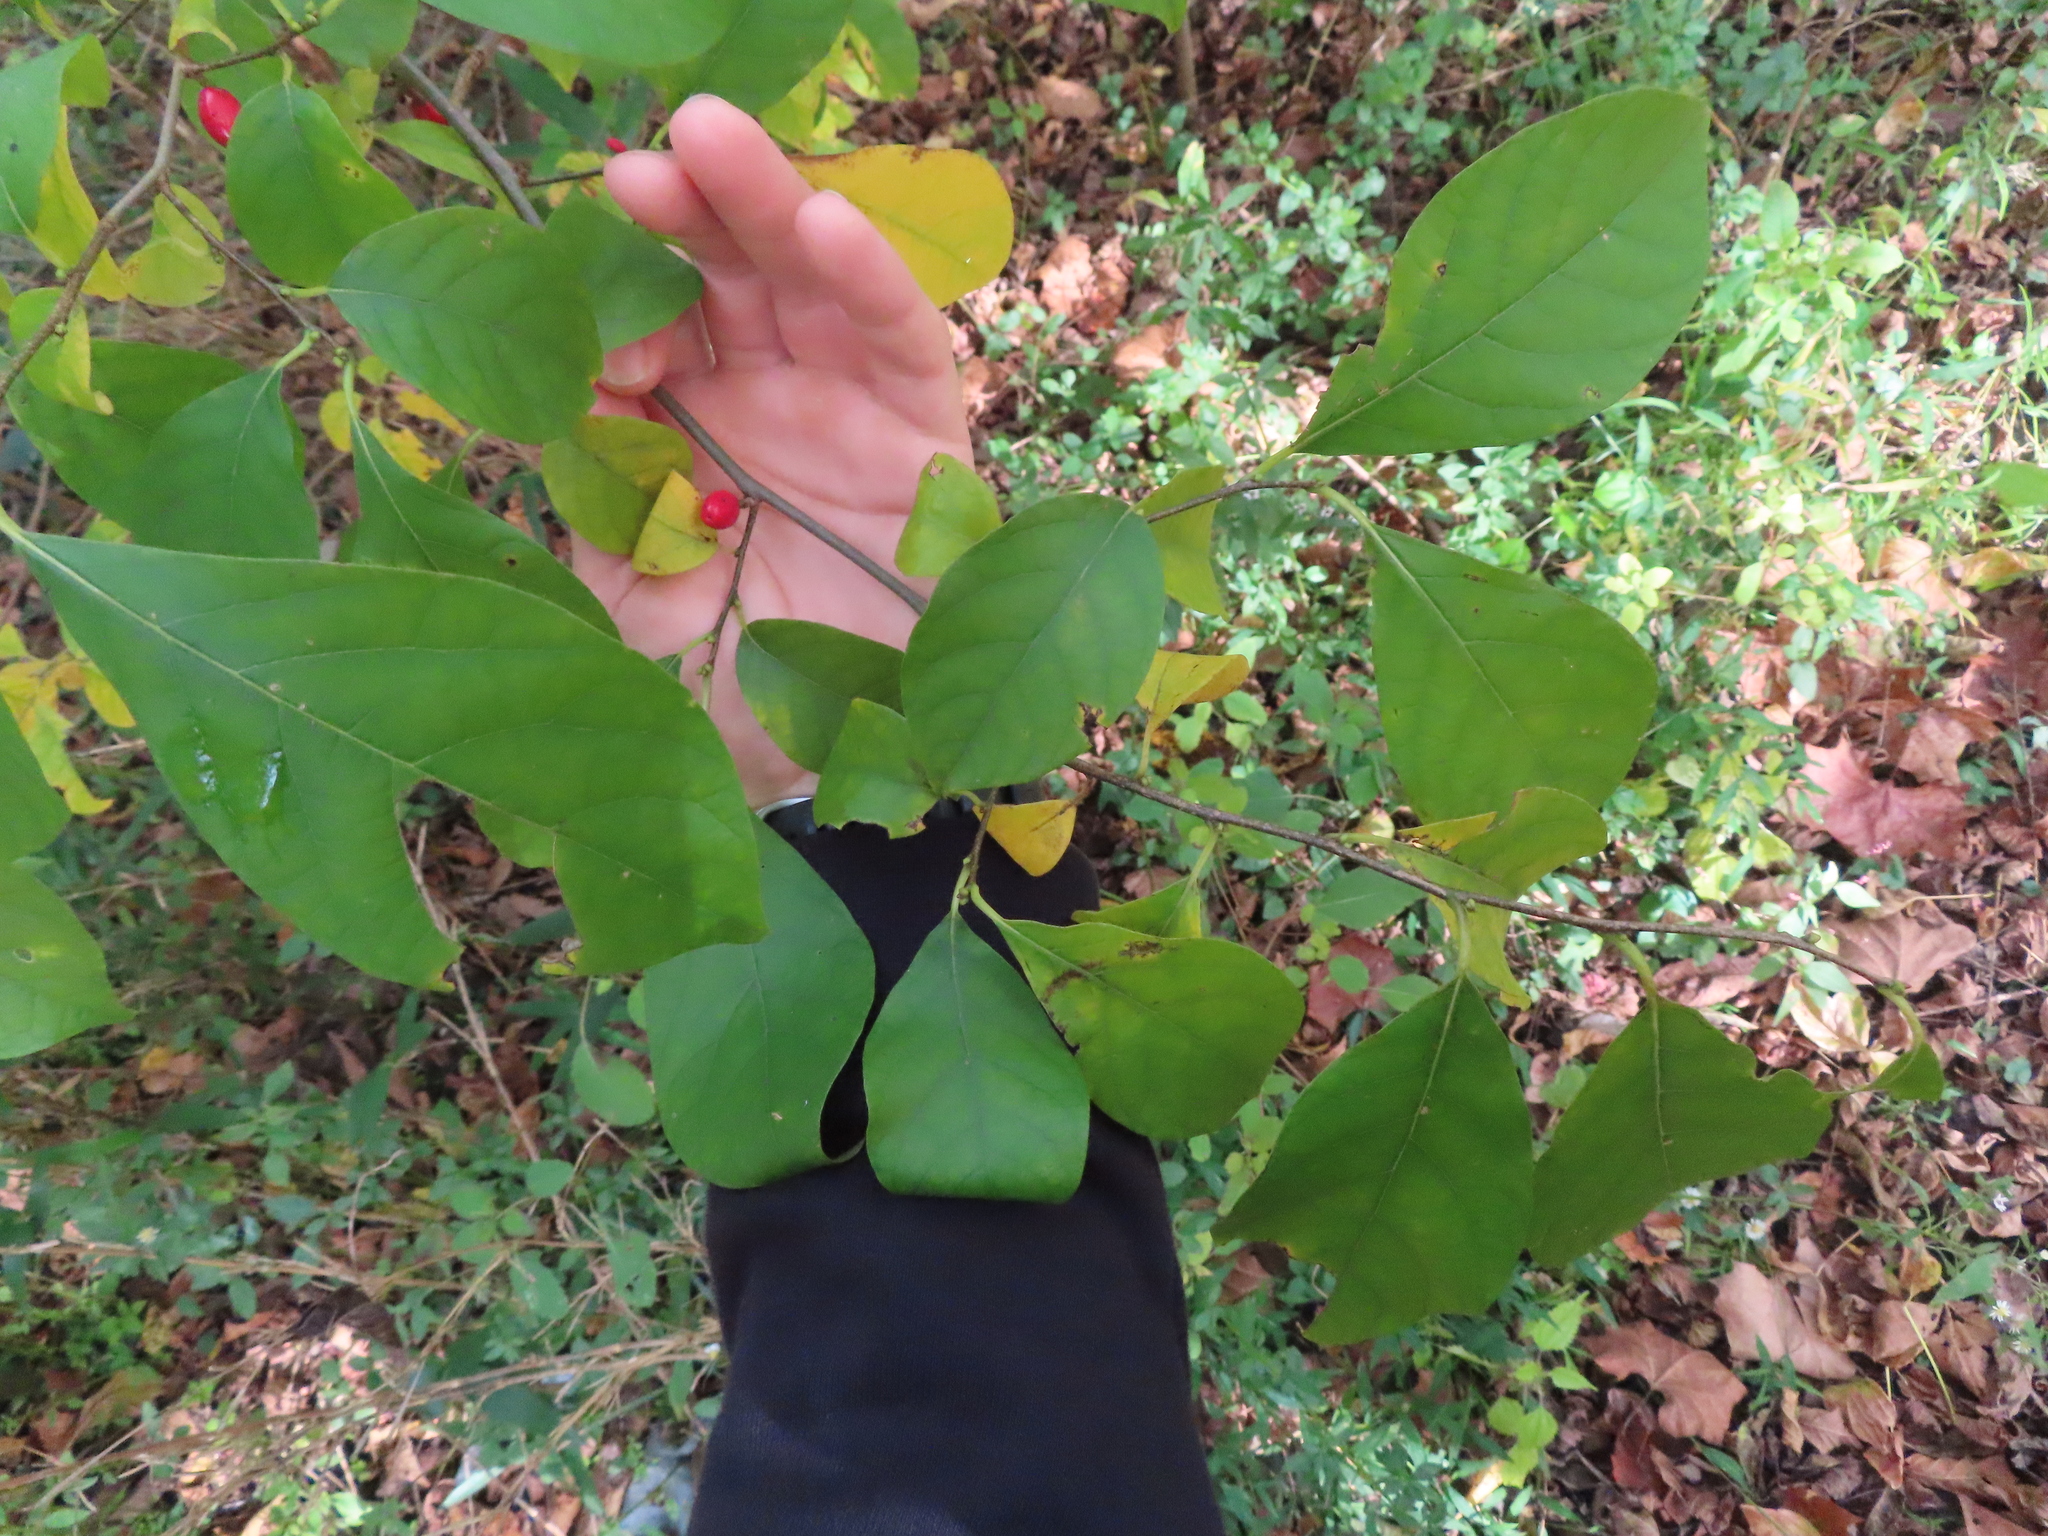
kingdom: Plantae
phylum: Tracheophyta
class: Magnoliopsida
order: Laurales
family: Lauraceae
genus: Lindera
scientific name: Lindera benzoin
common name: Spicebush
